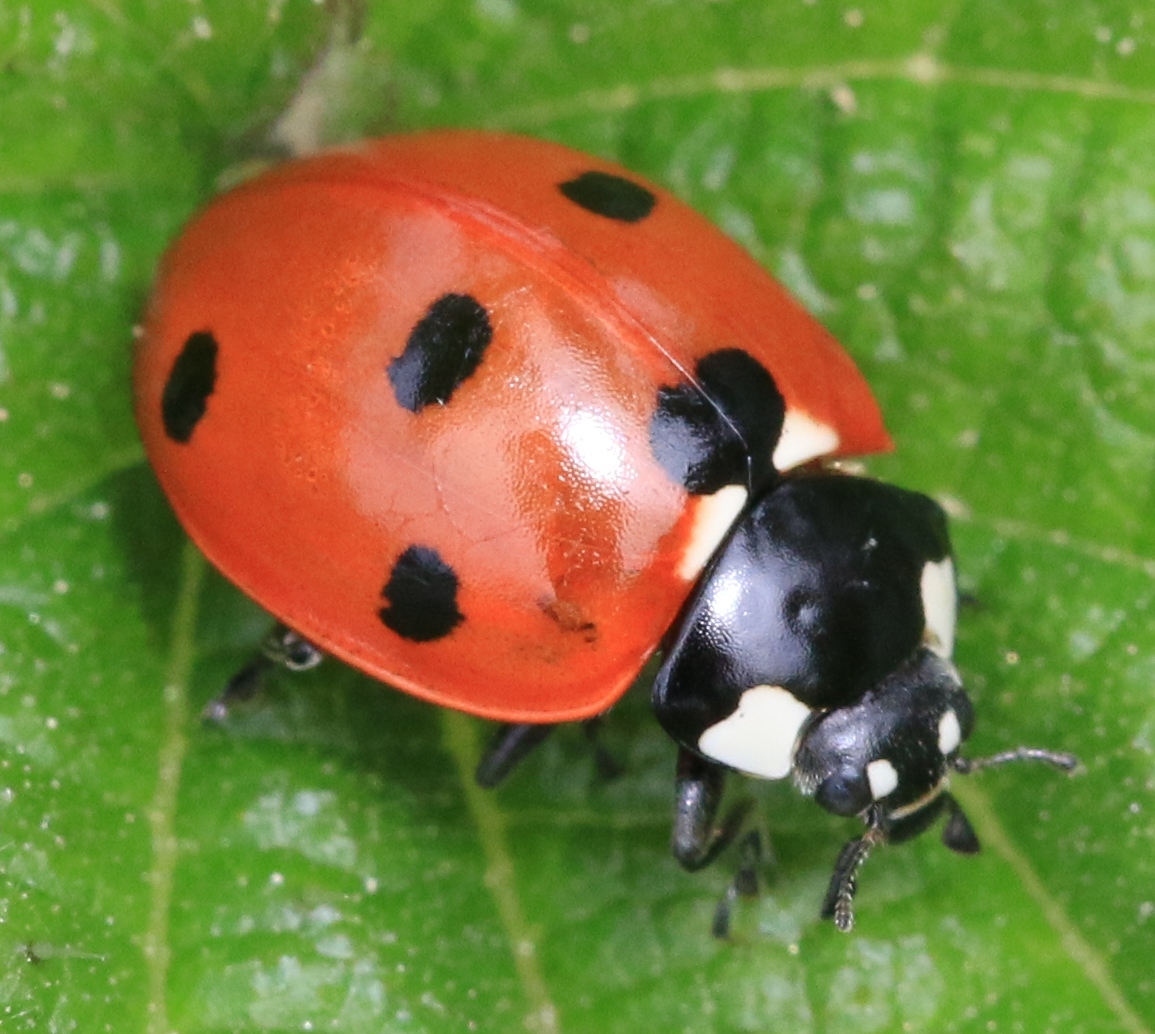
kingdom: Animalia
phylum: Arthropoda
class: Insecta
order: Coleoptera
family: Coccinellidae
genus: Coccinella
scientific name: Coccinella septempunctata
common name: Sevenspotted lady beetle
